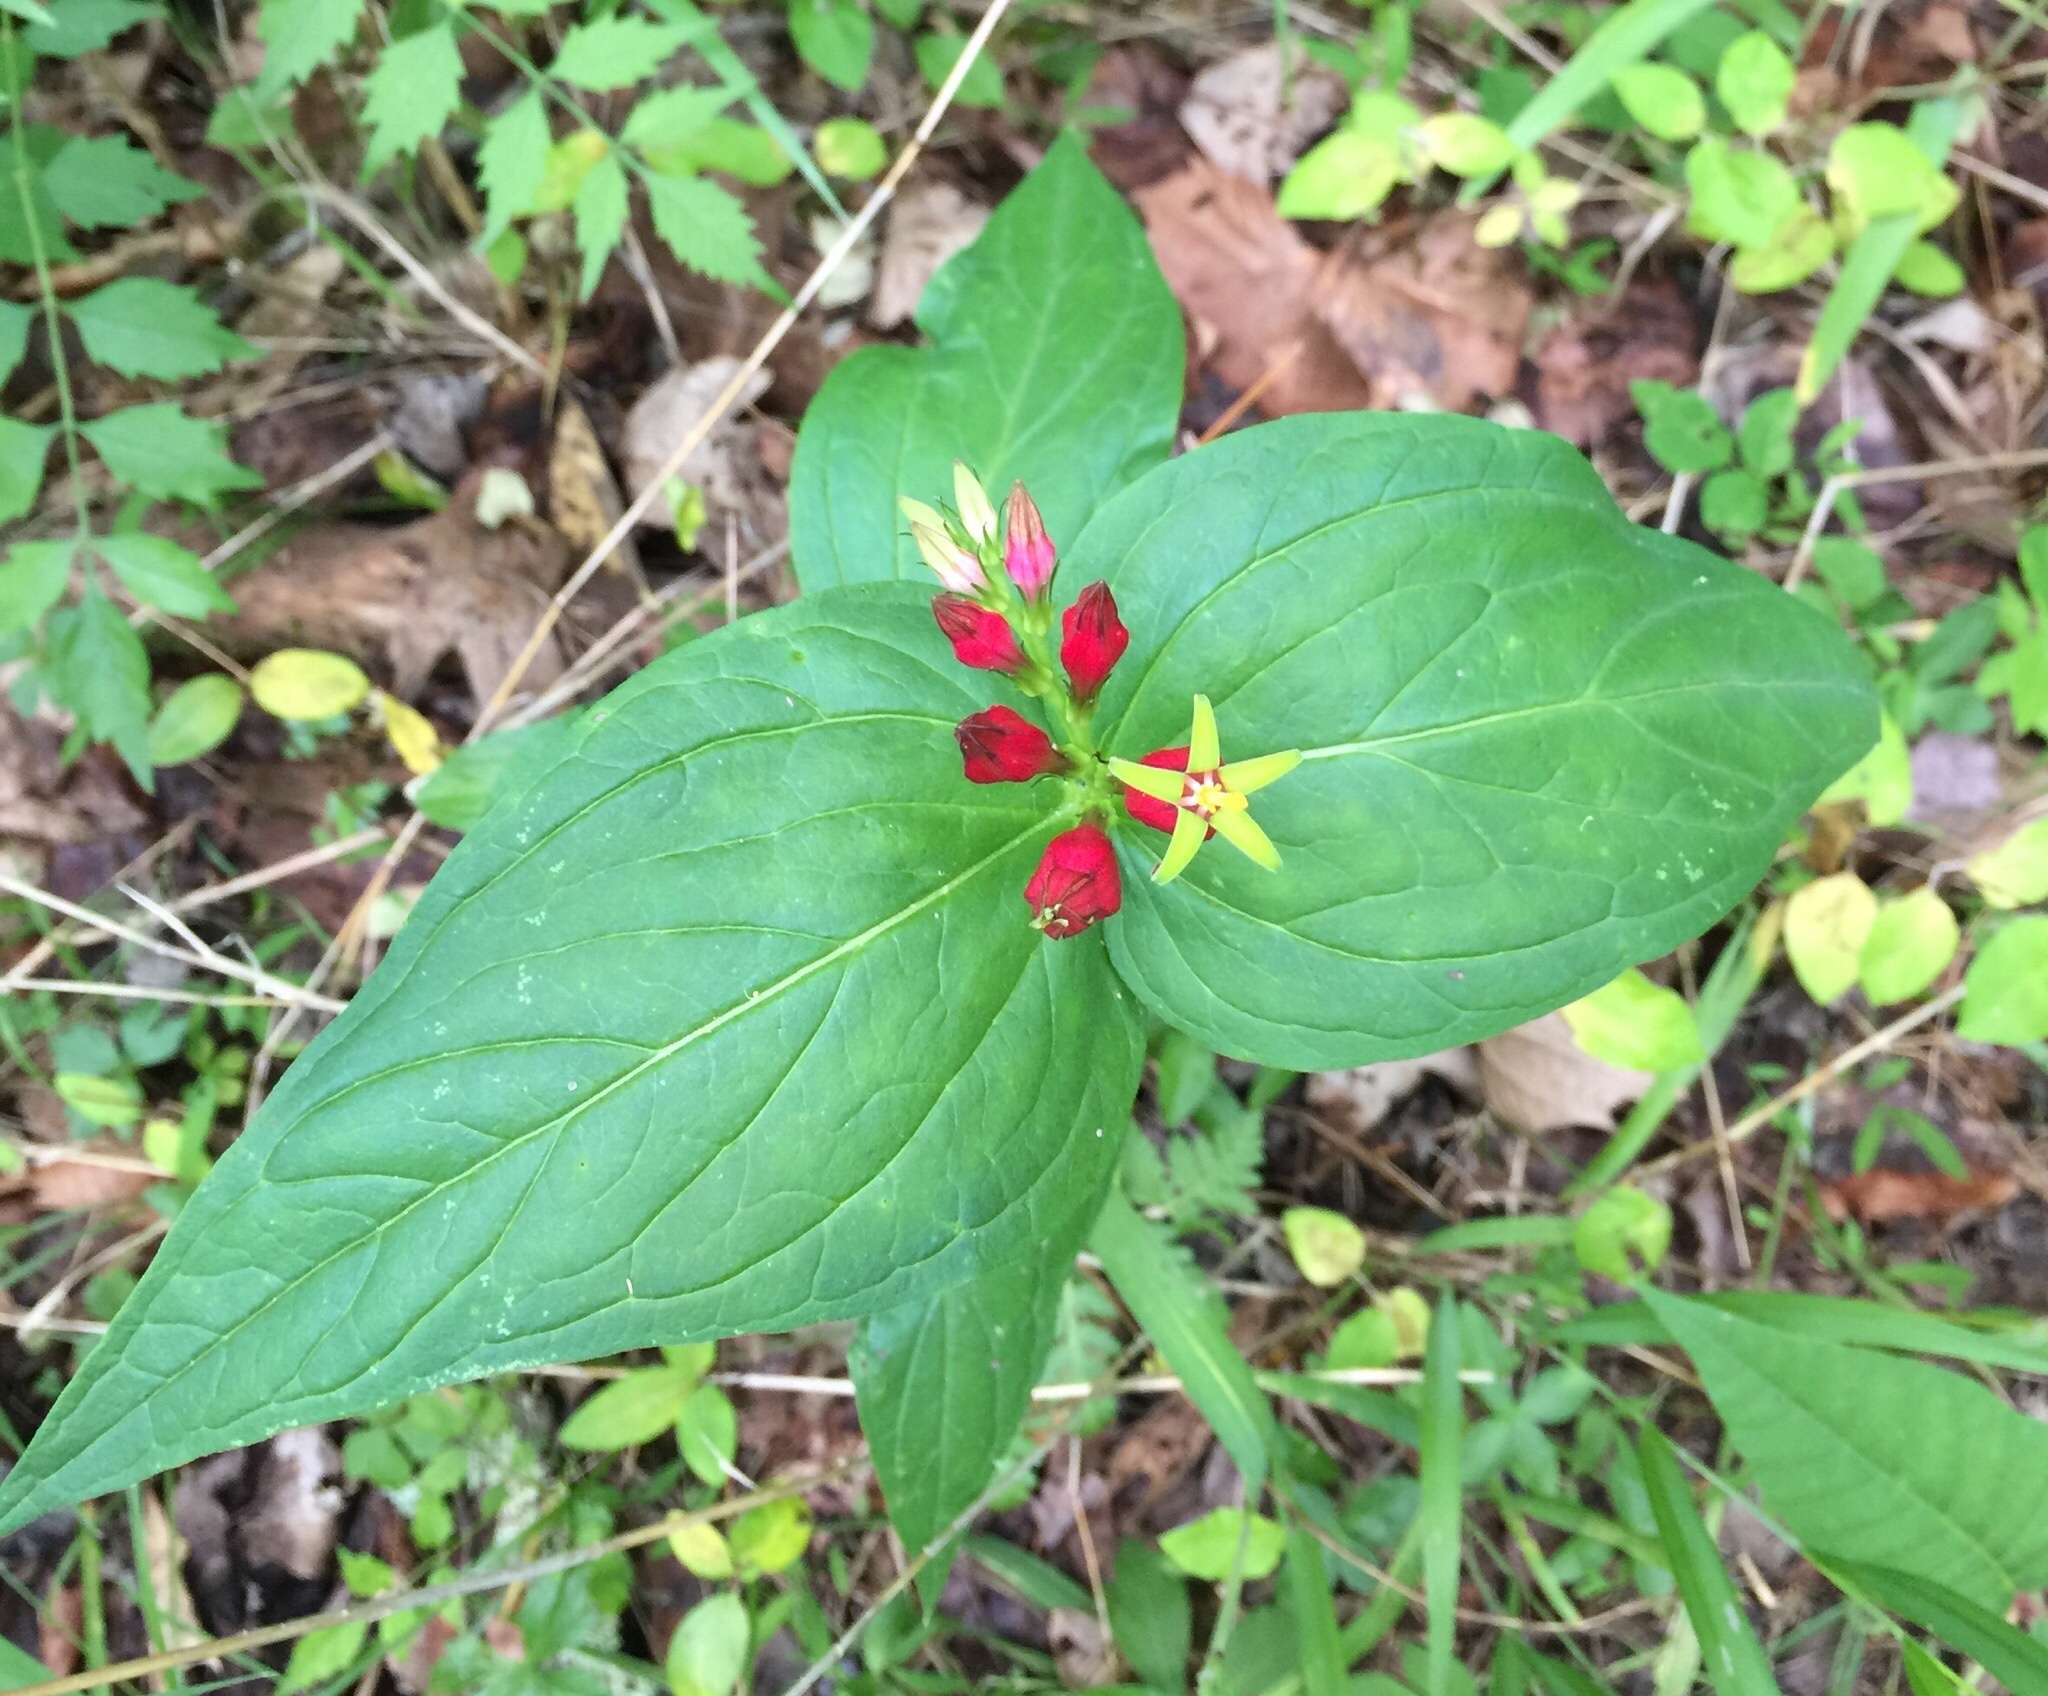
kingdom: Plantae
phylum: Tracheophyta
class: Magnoliopsida
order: Gentianales
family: Loganiaceae
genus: Spigelia
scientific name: Spigelia marilandica
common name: Indian-pink
